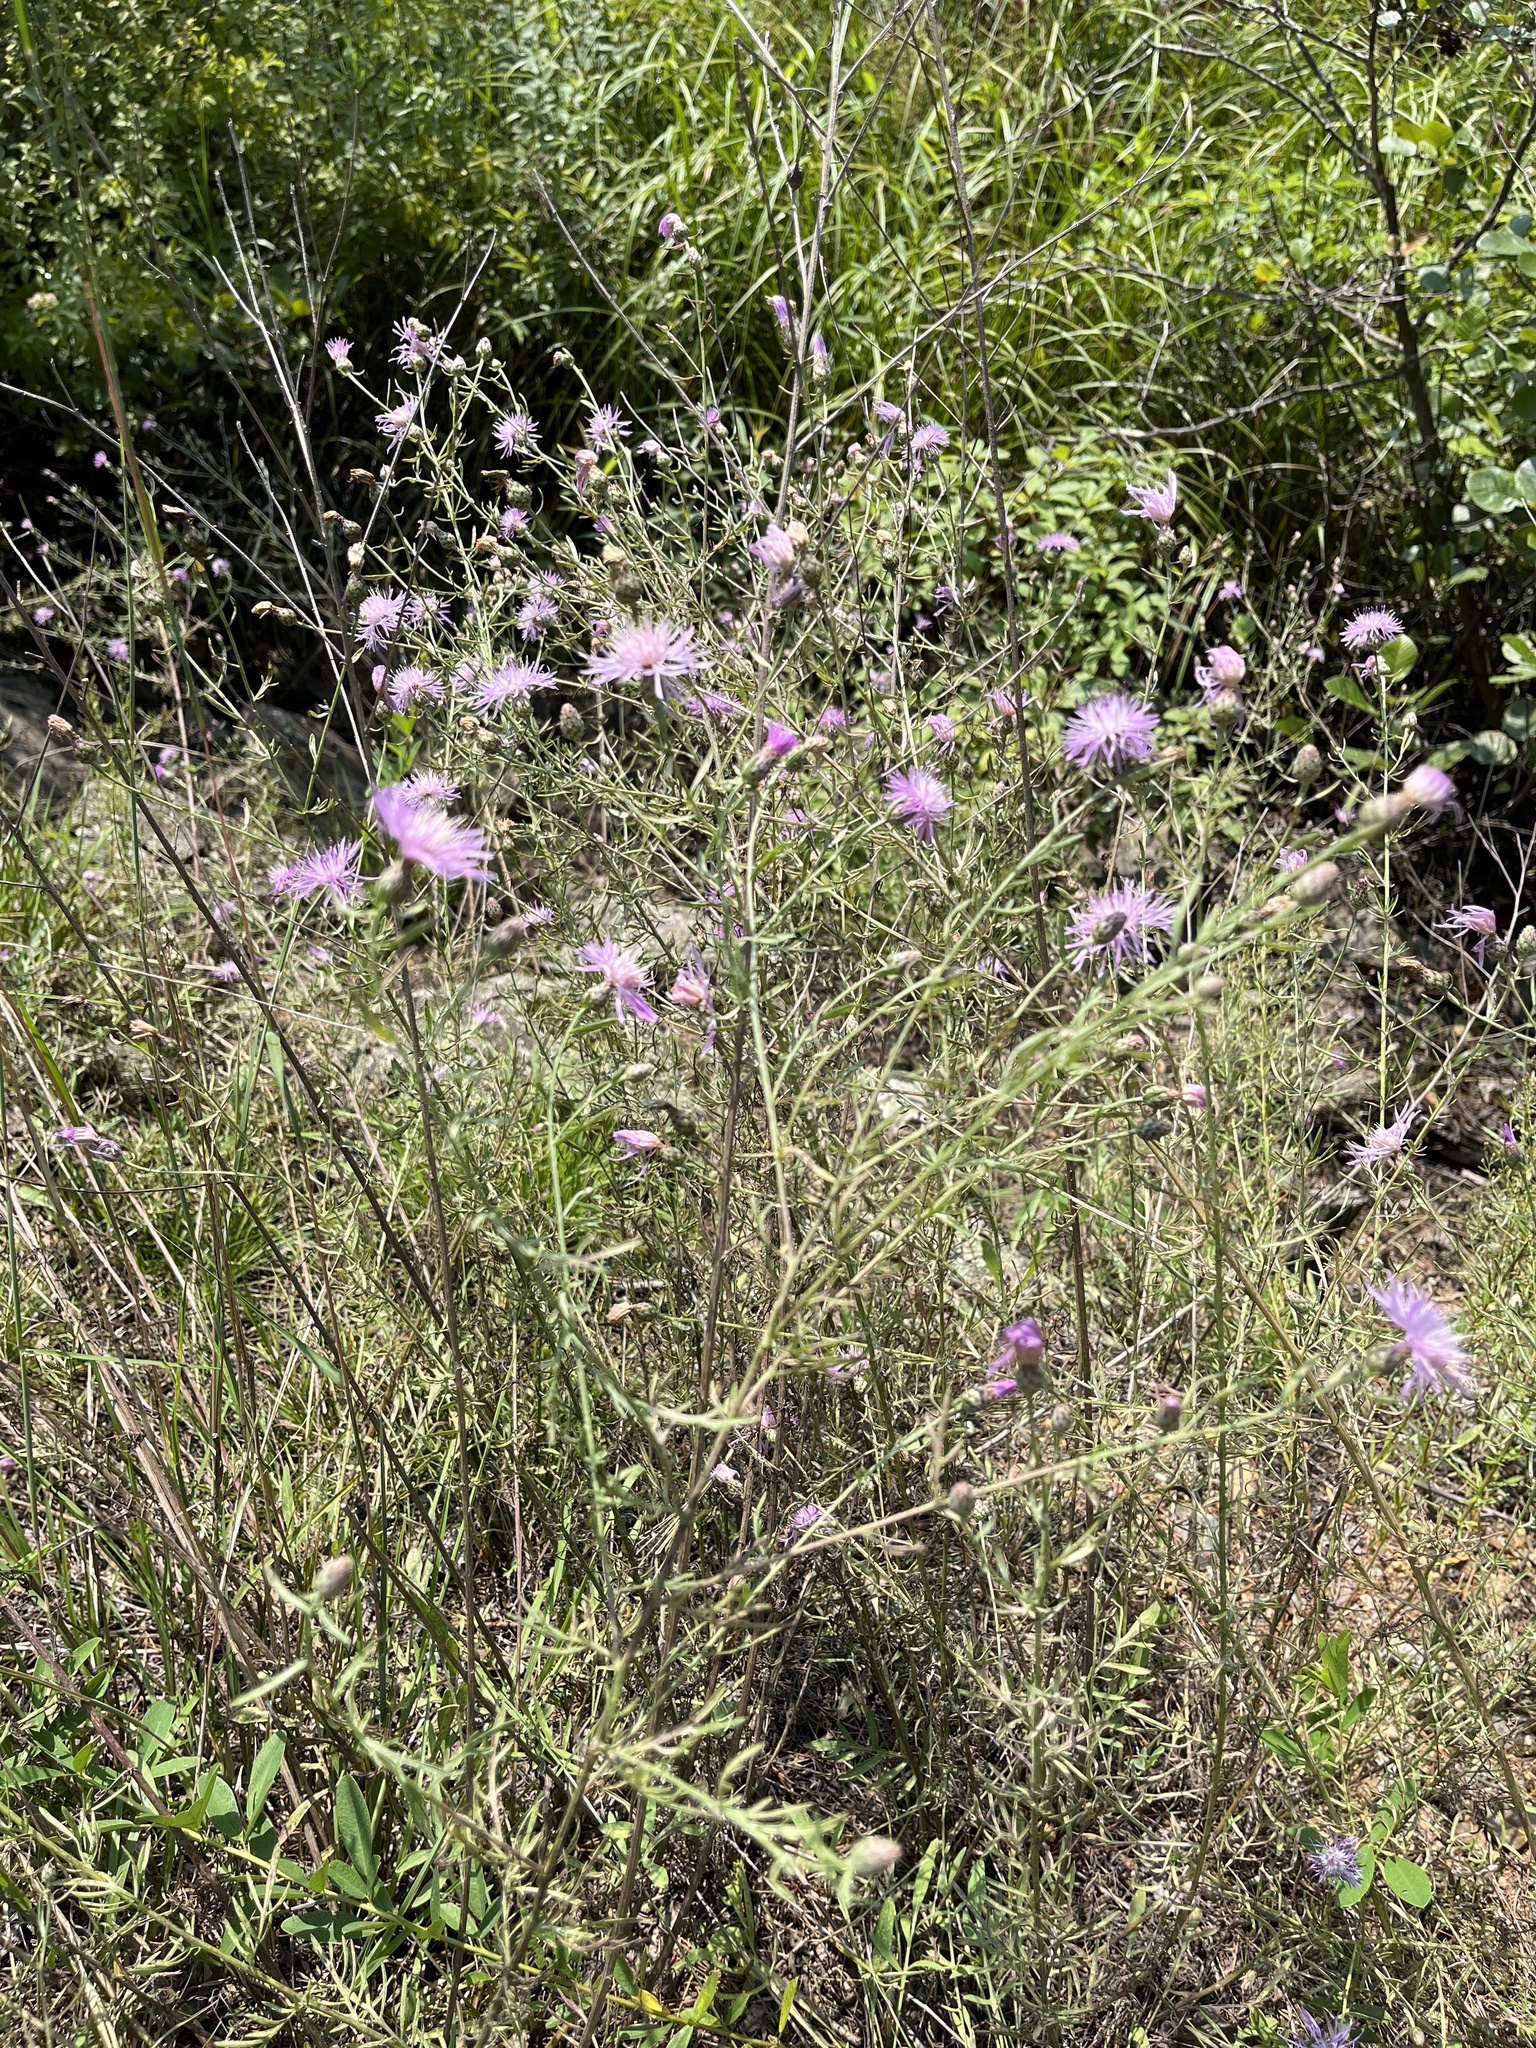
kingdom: Plantae
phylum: Tracheophyta
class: Magnoliopsida
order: Asterales
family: Asteraceae
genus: Centaurea
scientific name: Centaurea stoebe
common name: Spotted knapweed
